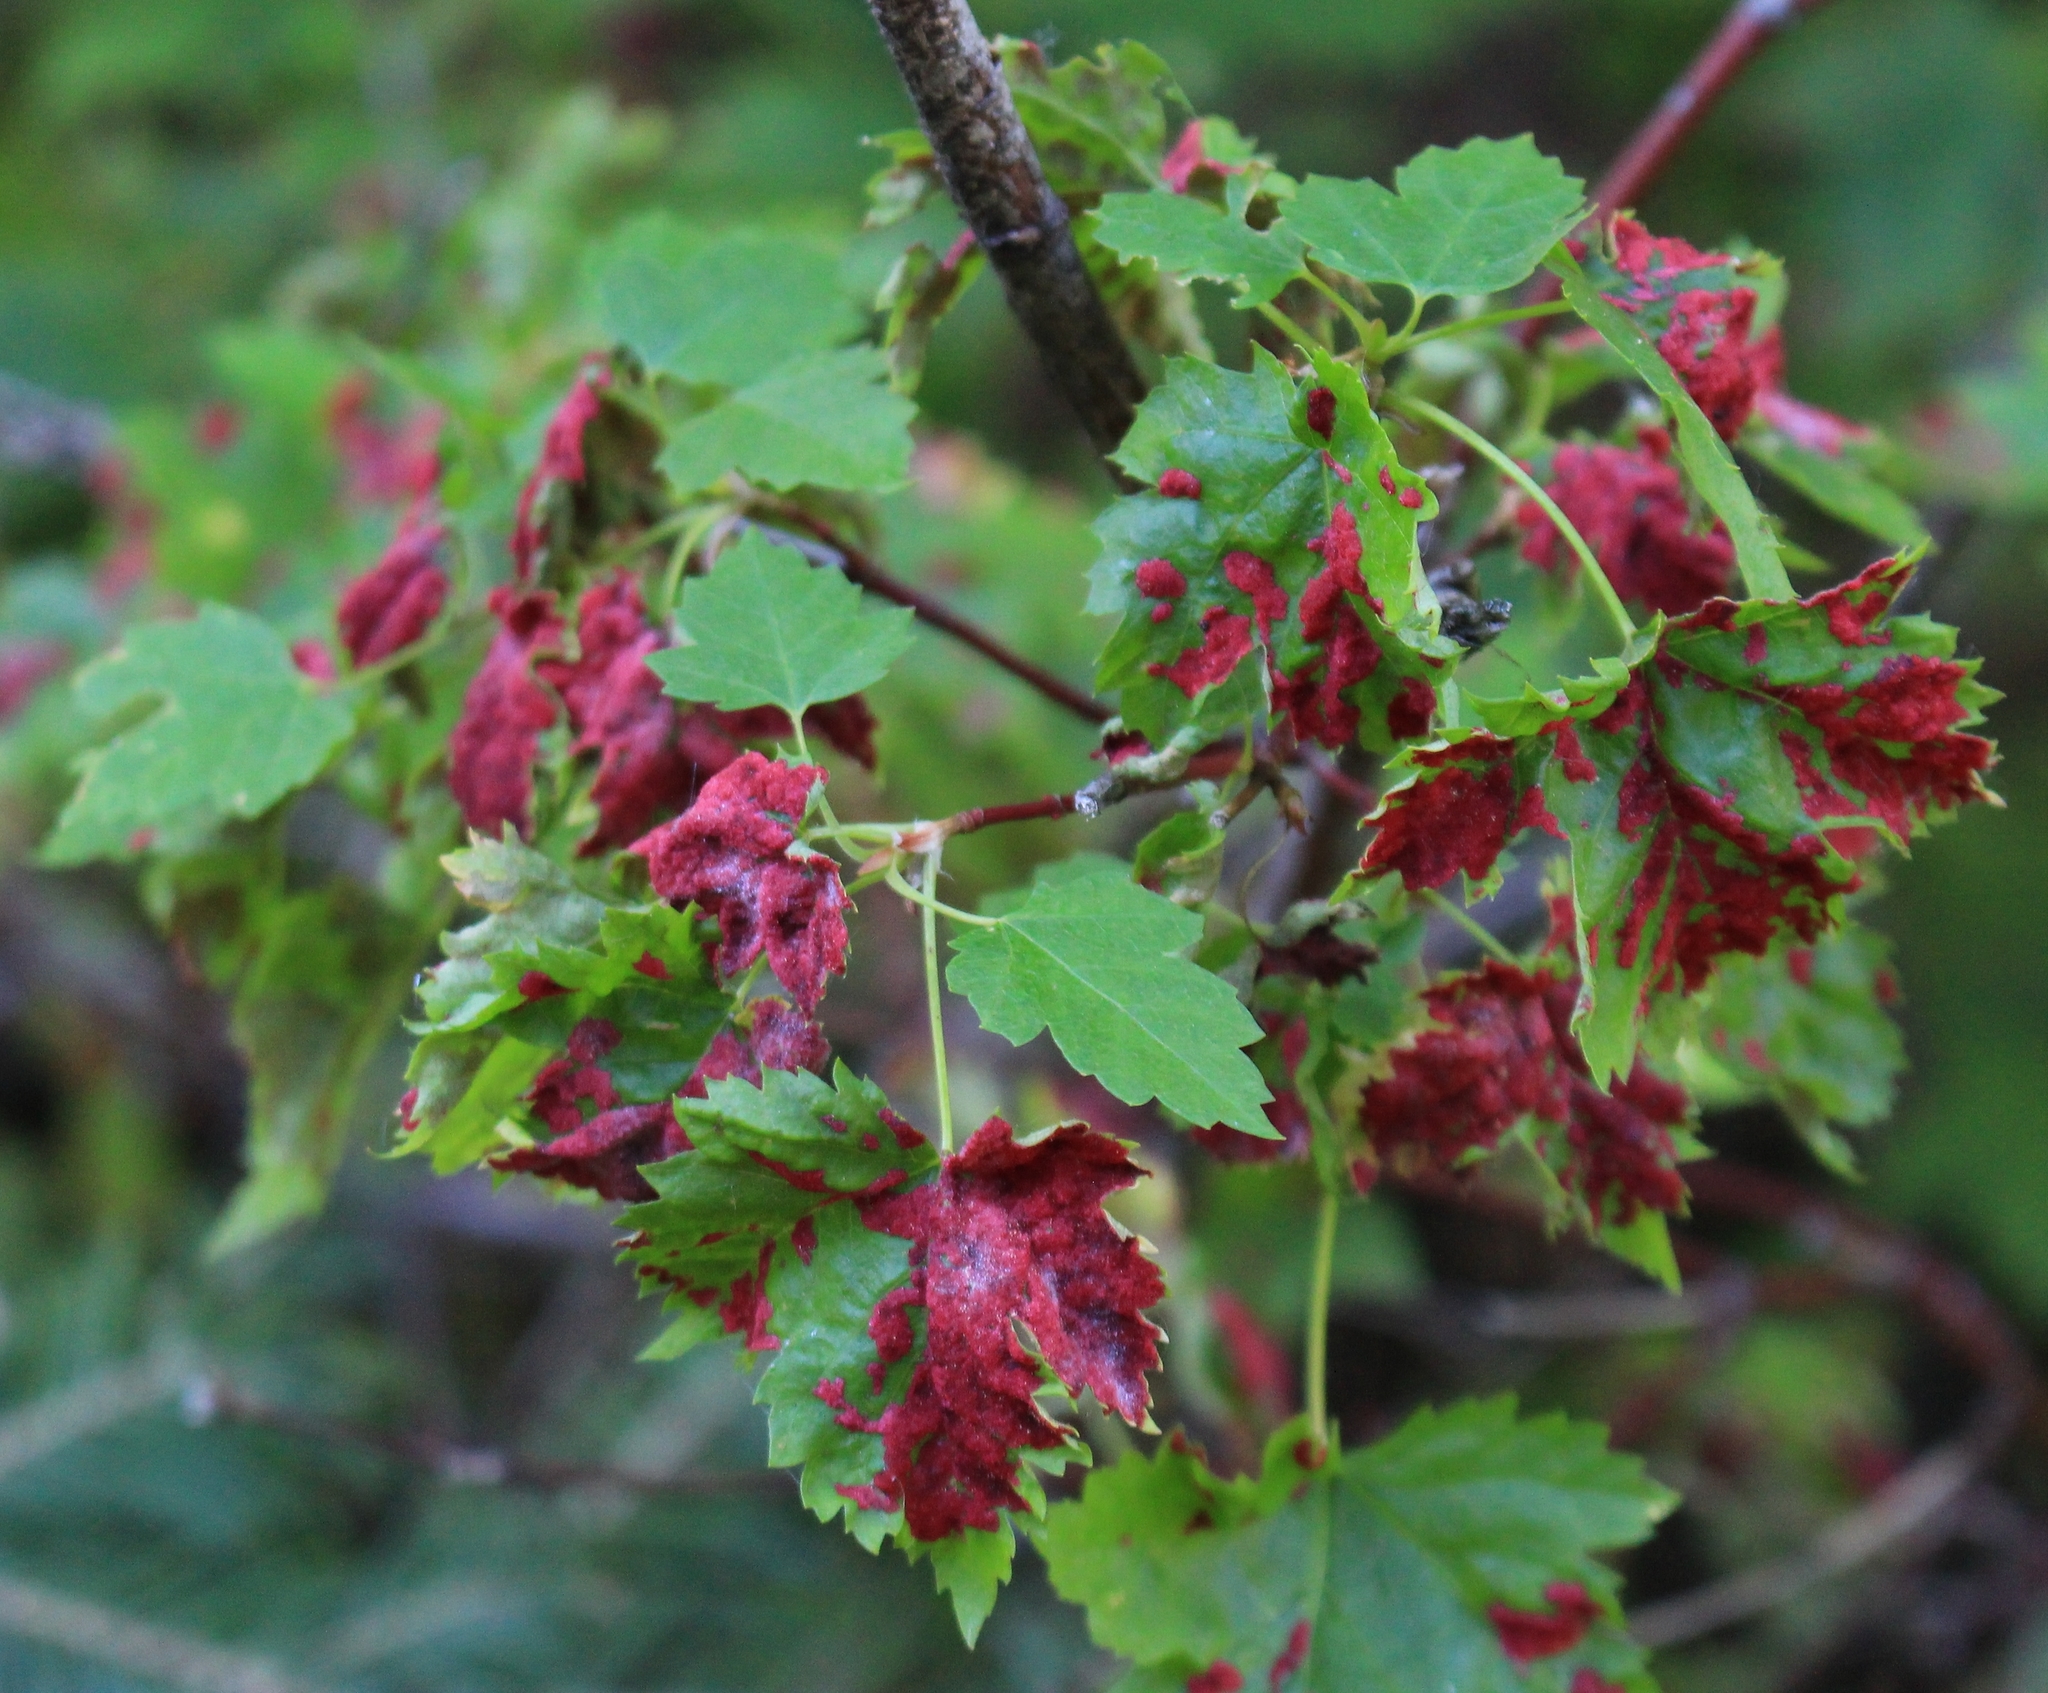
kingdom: Animalia
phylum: Arthropoda
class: Arachnida
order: Trombidiformes
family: Eriophyidae
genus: Aceria
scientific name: Aceria
